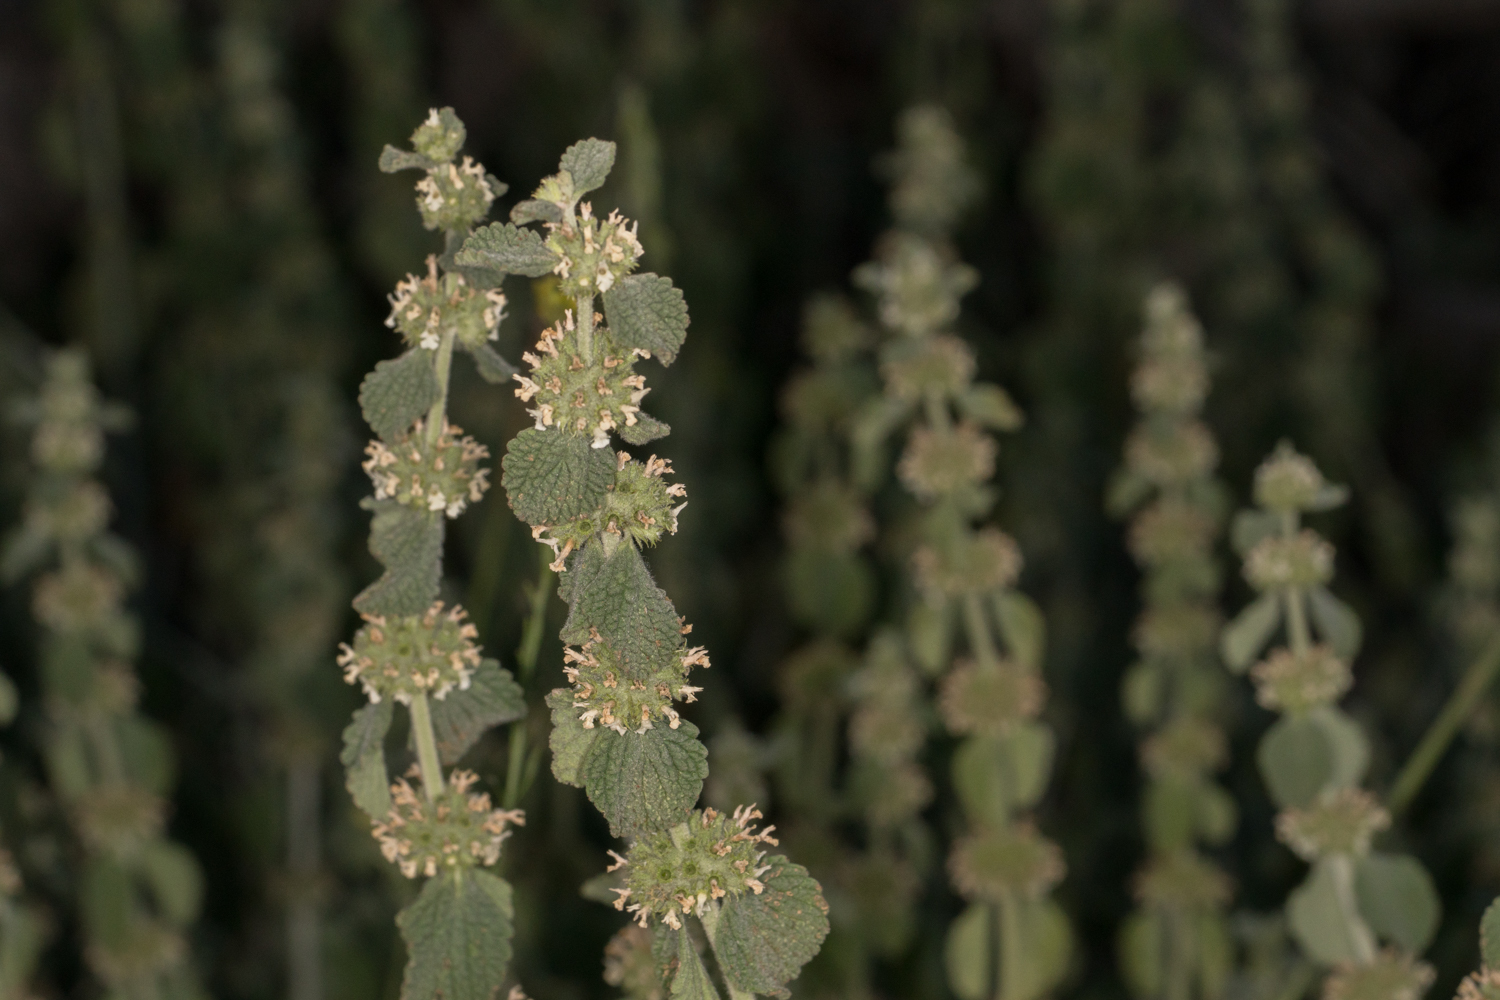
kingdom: Plantae
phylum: Tracheophyta
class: Magnoliopsida
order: Lamiales
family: Lamiaceae
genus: Marrubium
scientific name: Marrubium vulgare
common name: Horehound
